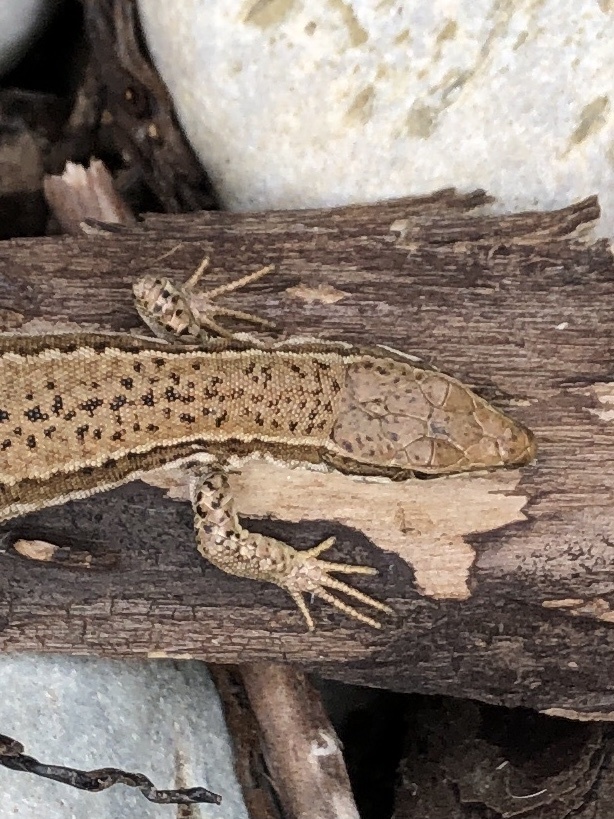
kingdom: Animalia
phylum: Chordata
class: Squamata
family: Lacertidae
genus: Podarcis
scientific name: Podarcis muralis
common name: Common wall lizard
